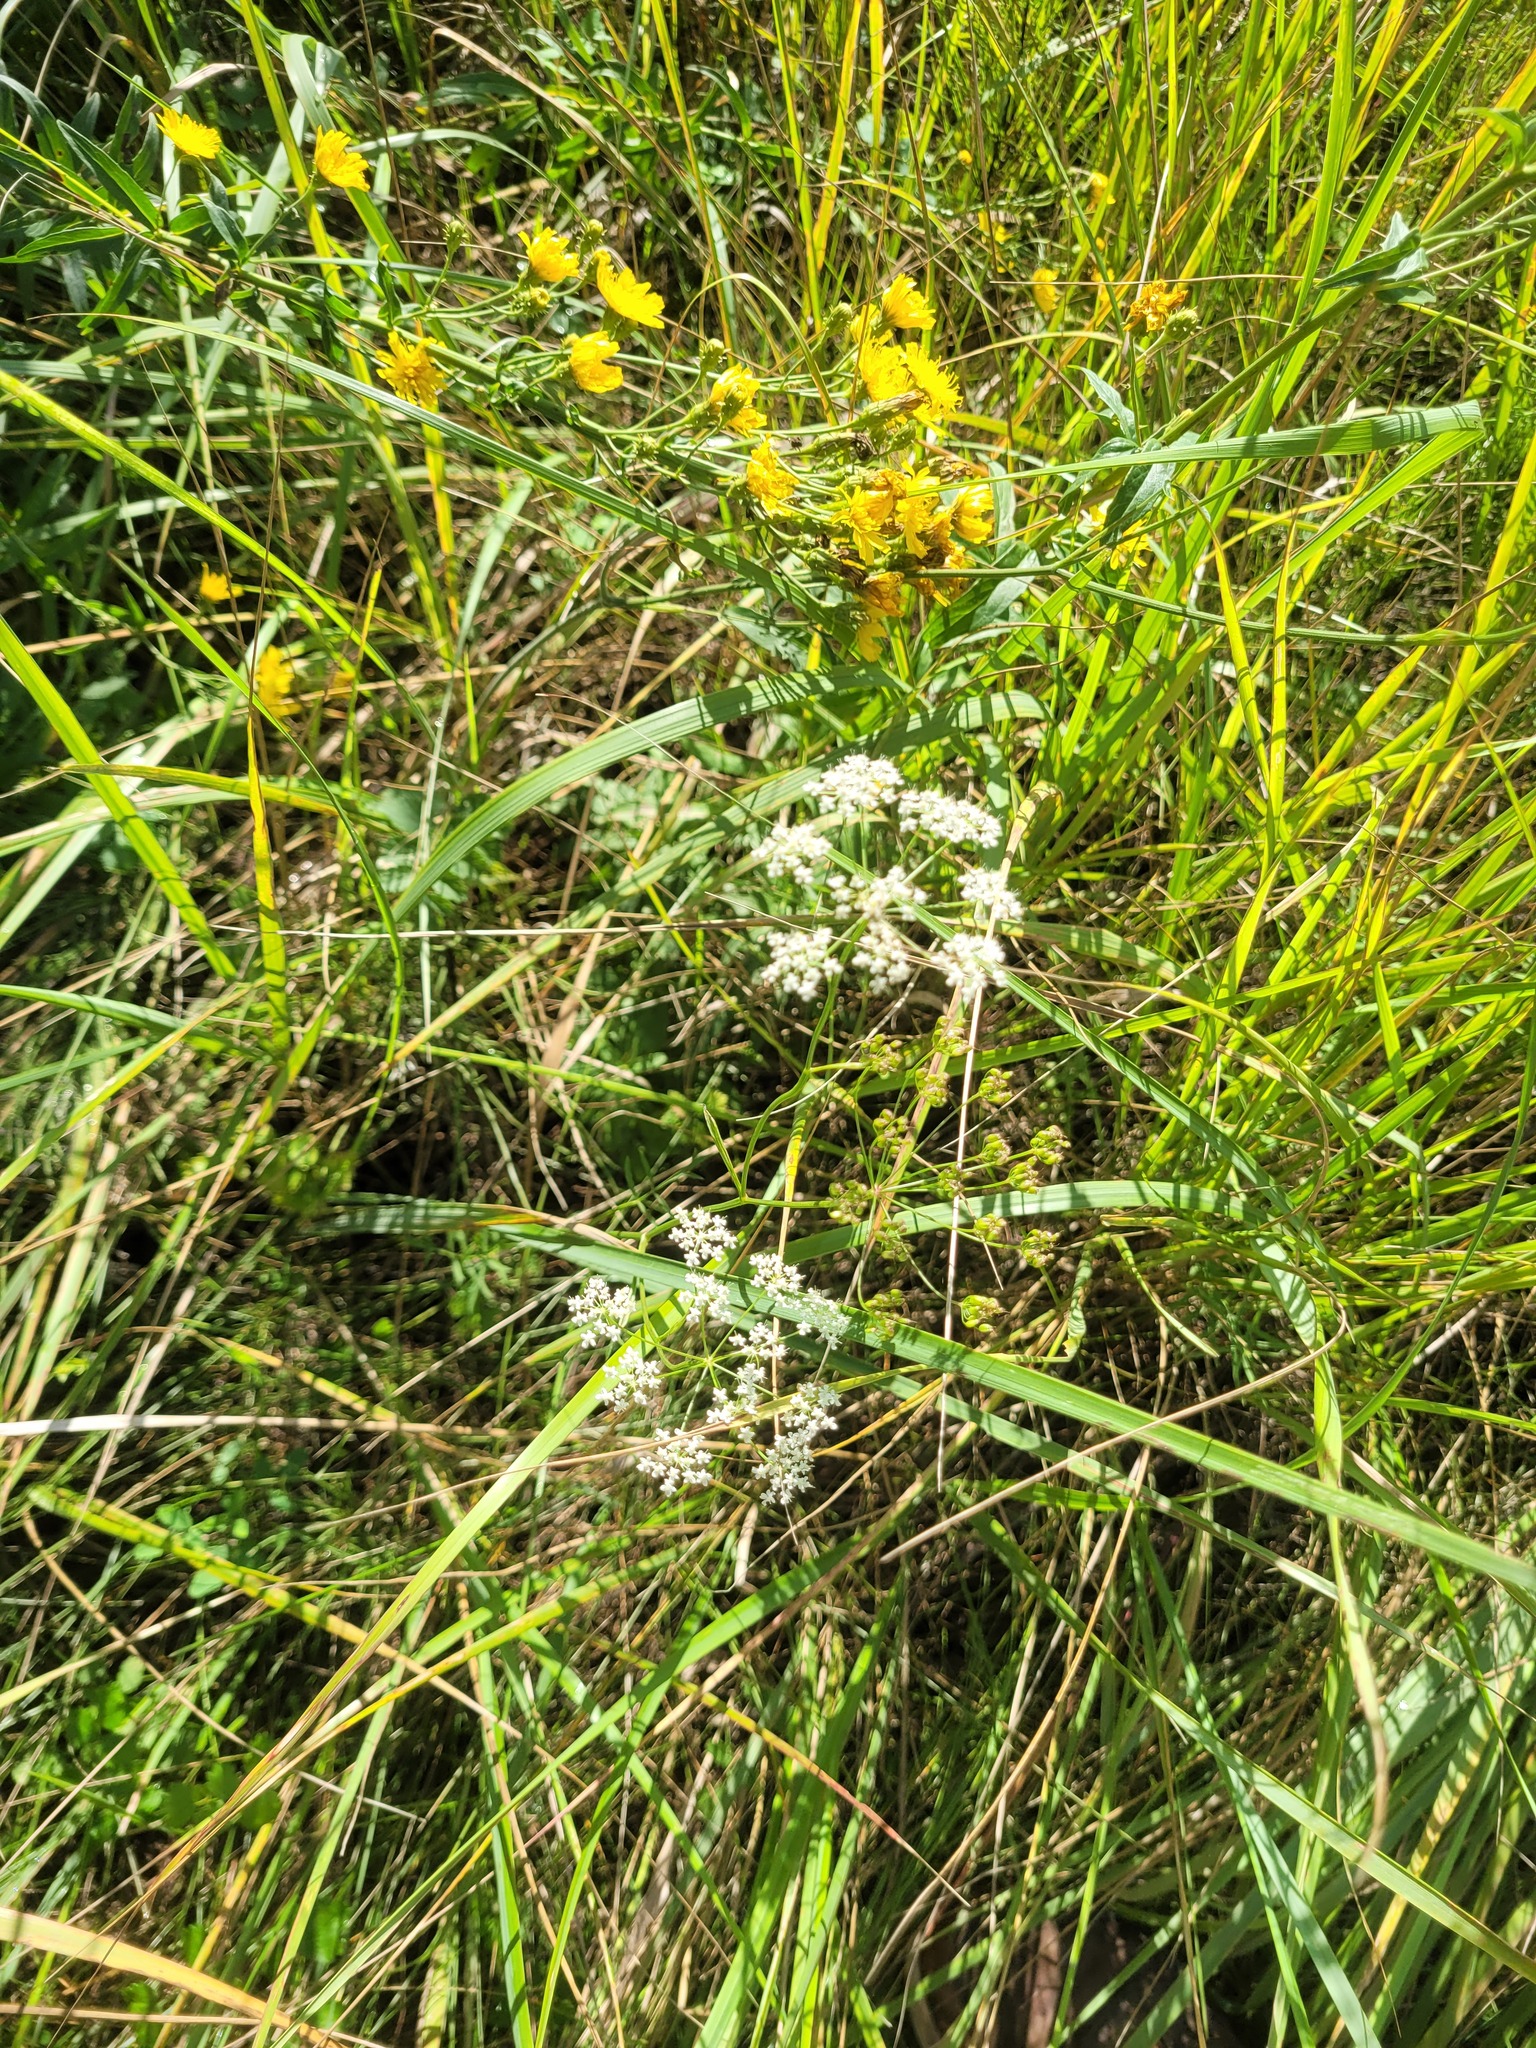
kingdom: Plantae
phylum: Tracheophyta
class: Magnoliopsida
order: Apiales
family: Apiaceae
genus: Pimpinella
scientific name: Pimpinella saxifraga
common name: Burnet-saxifrage
